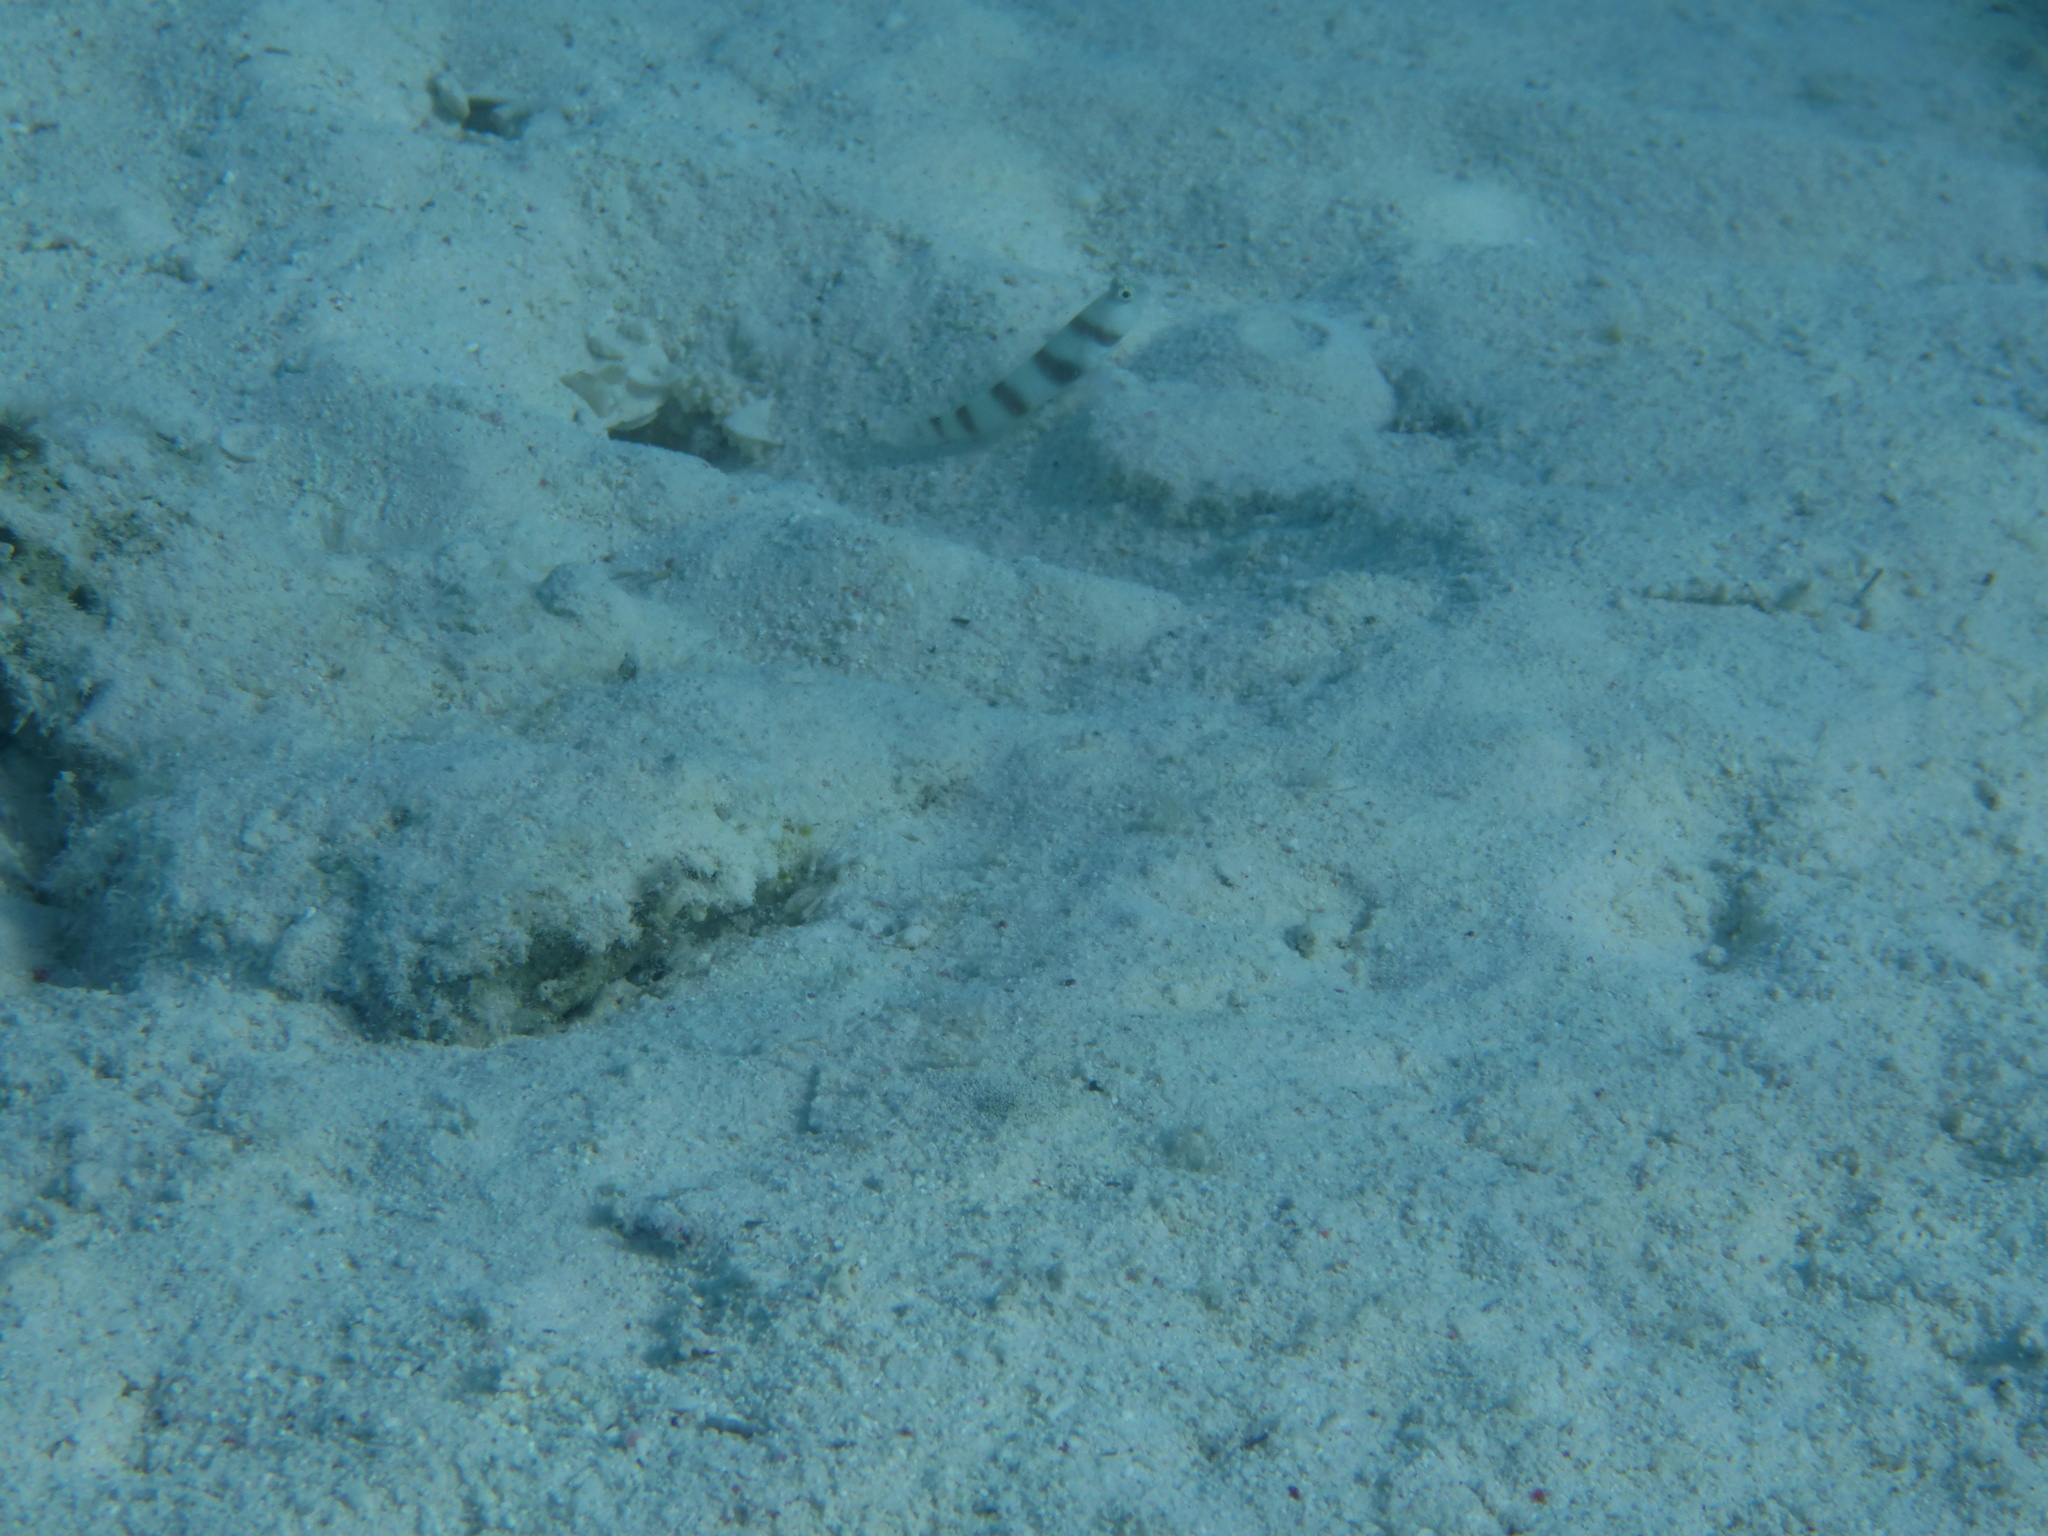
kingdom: Animalia
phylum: Chordata
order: Perciformes
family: Gobiidae
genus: Amblyeleotris
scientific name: Amblyeleotris steinitzi
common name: Steinitz' prawn-goby
